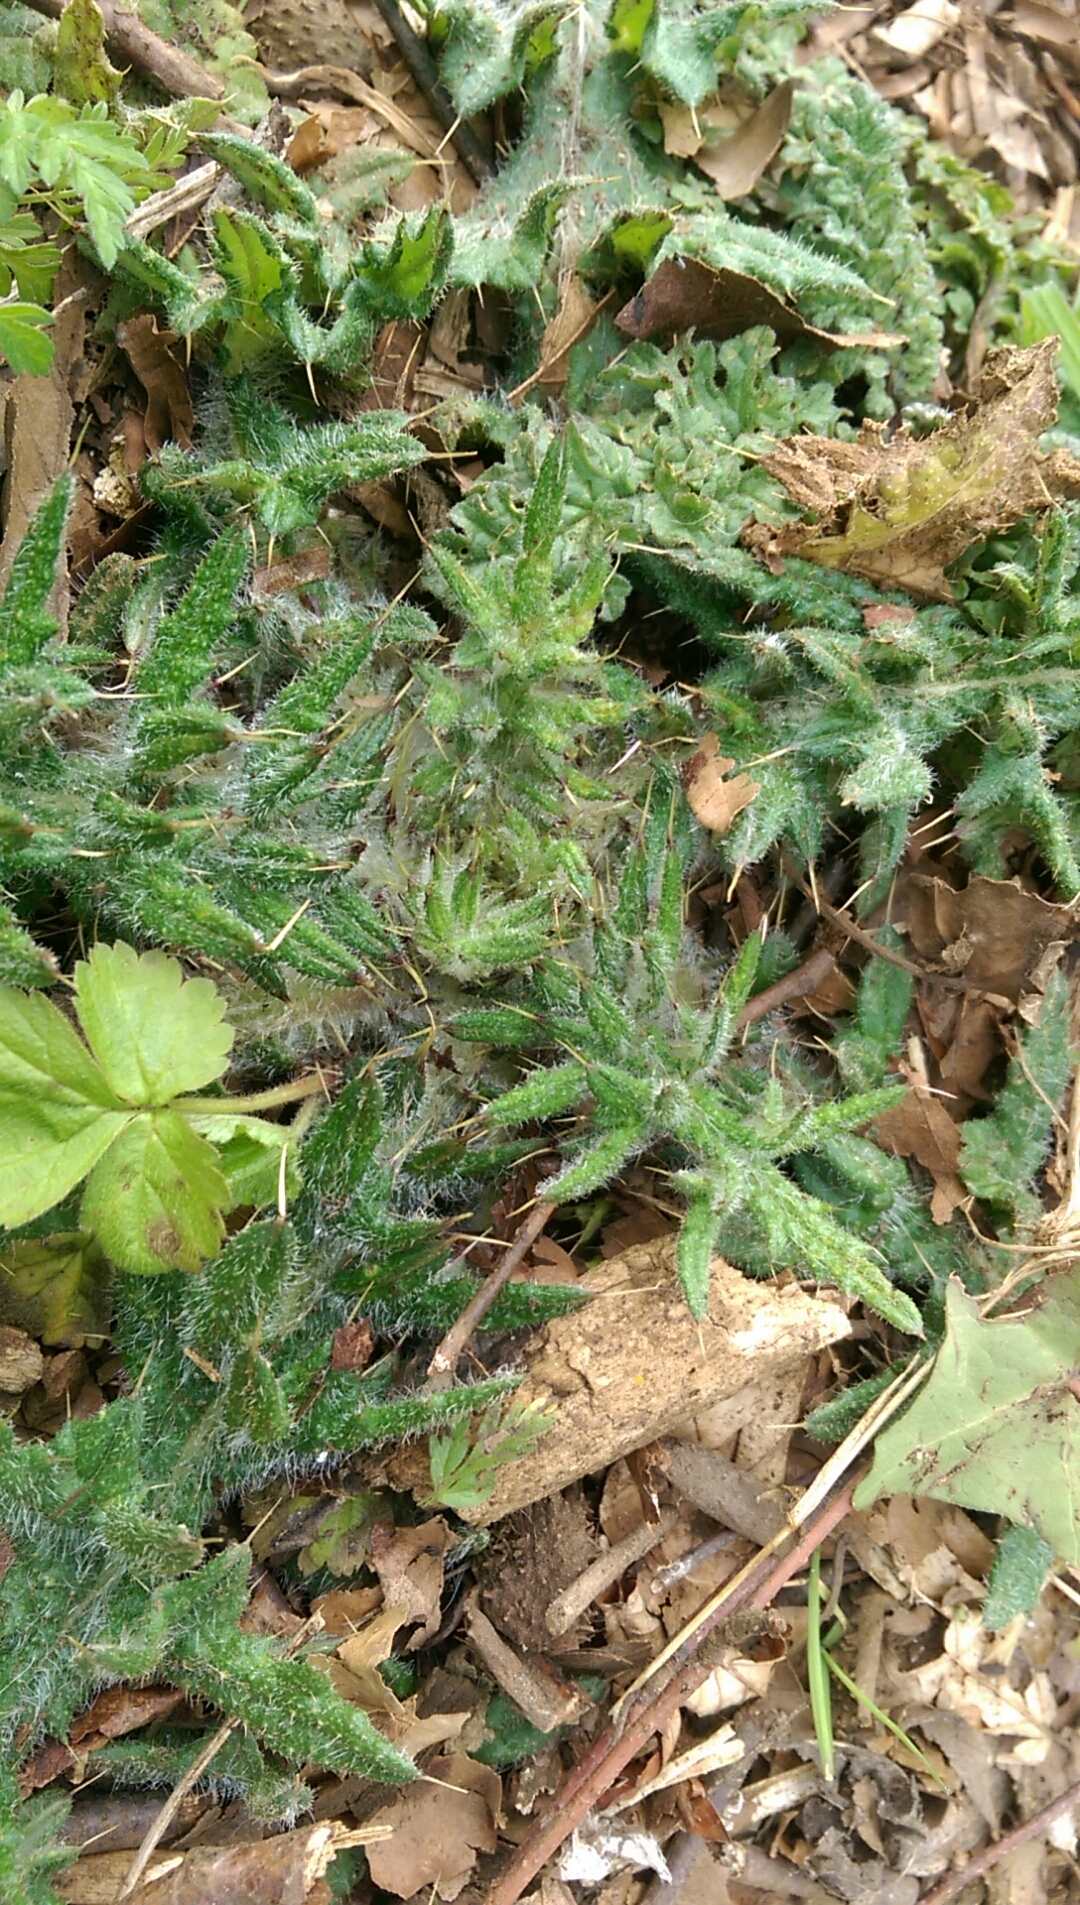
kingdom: Plantae
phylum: Tracheophyta
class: Magnoliopsida
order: Asterales
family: Asteraceae
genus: Cirsium
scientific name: Cirsium vulgare
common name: Bull thistle
